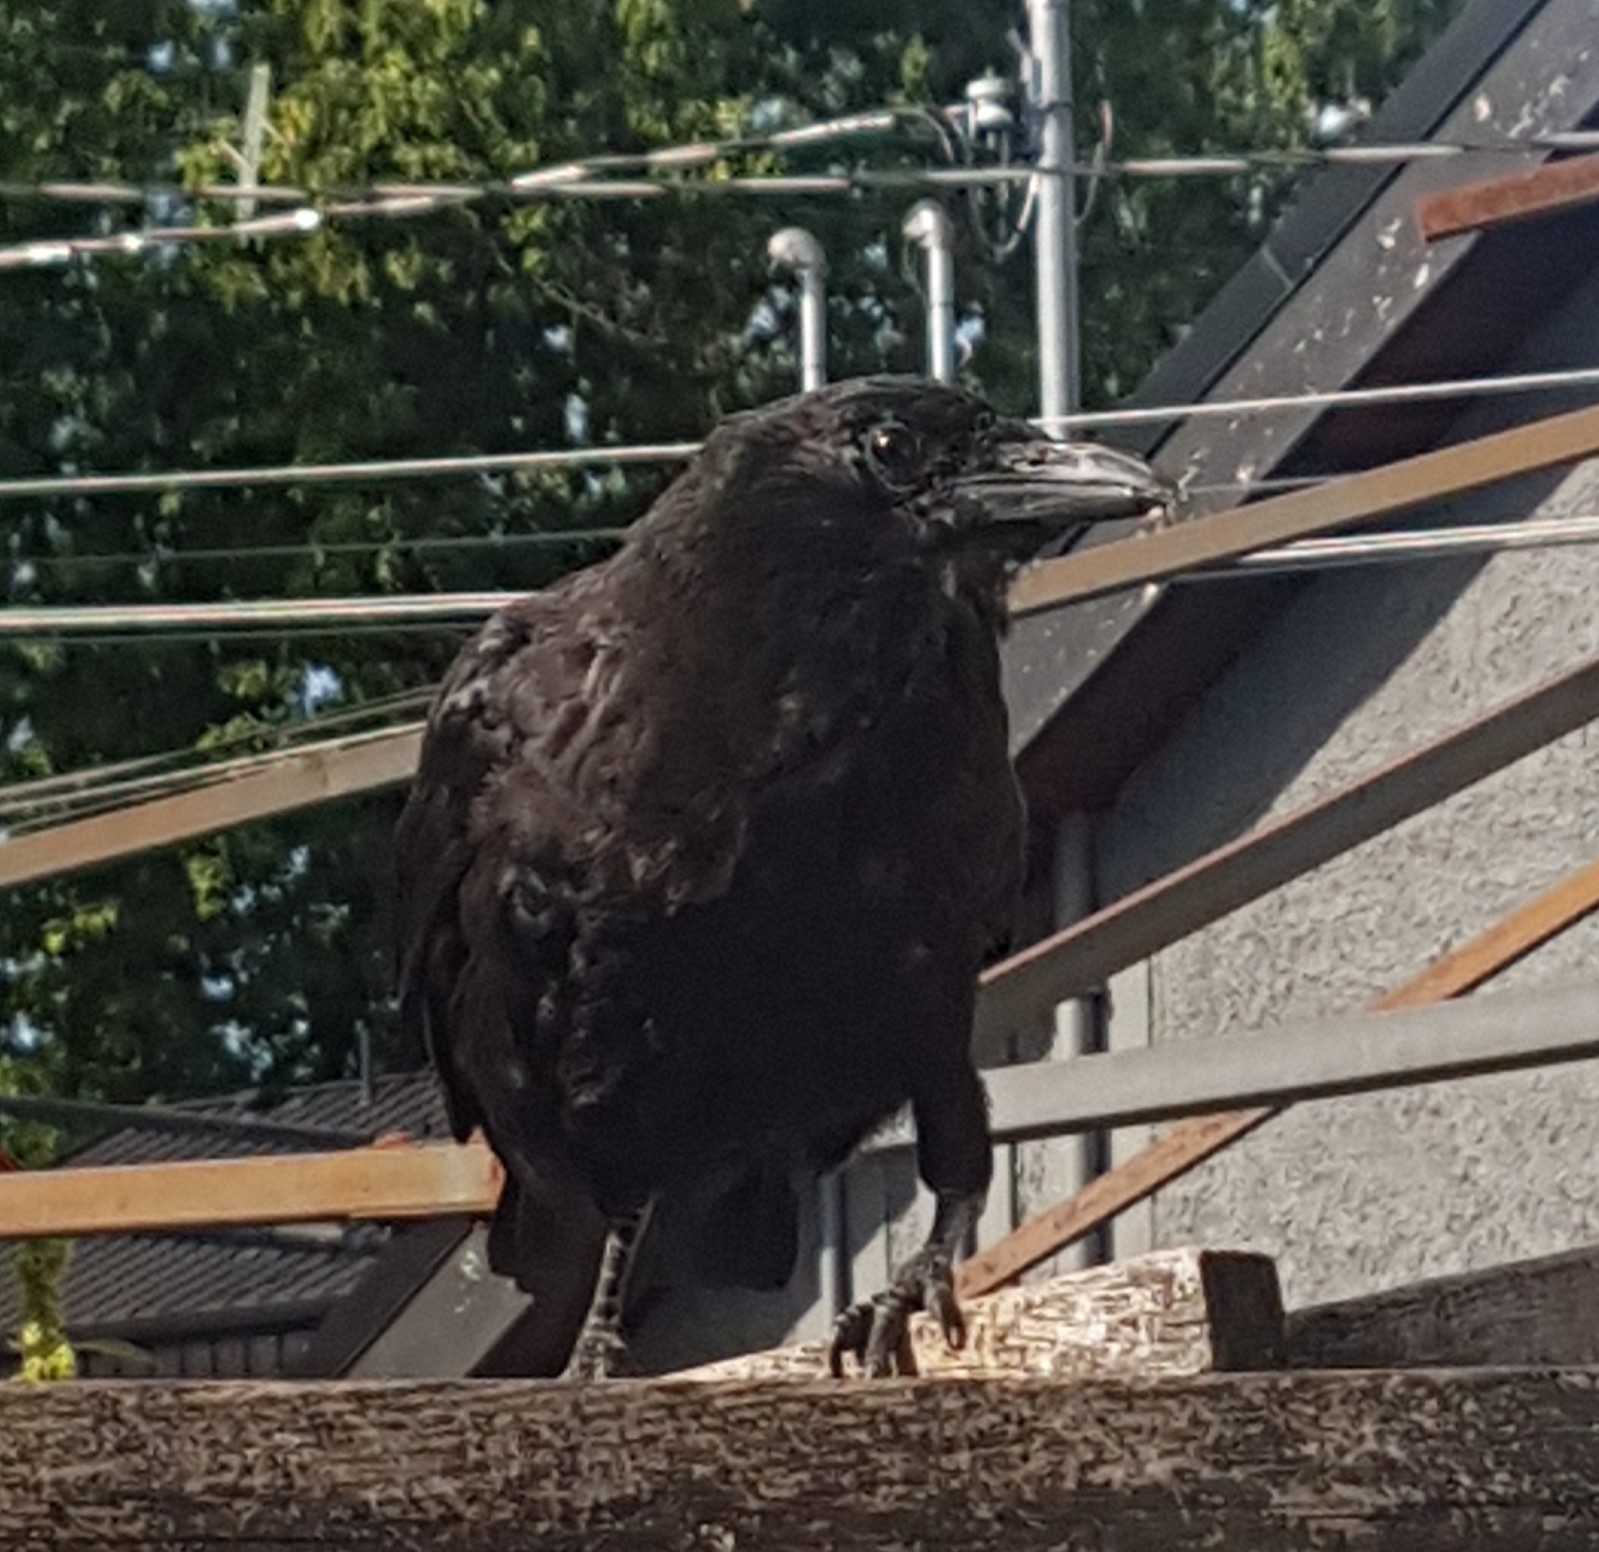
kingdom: Animalia
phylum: Chordata
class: Aves
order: Passeriformes
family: Corvidae
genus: Corvus
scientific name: Corvus brachyrhynchos
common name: American crow
